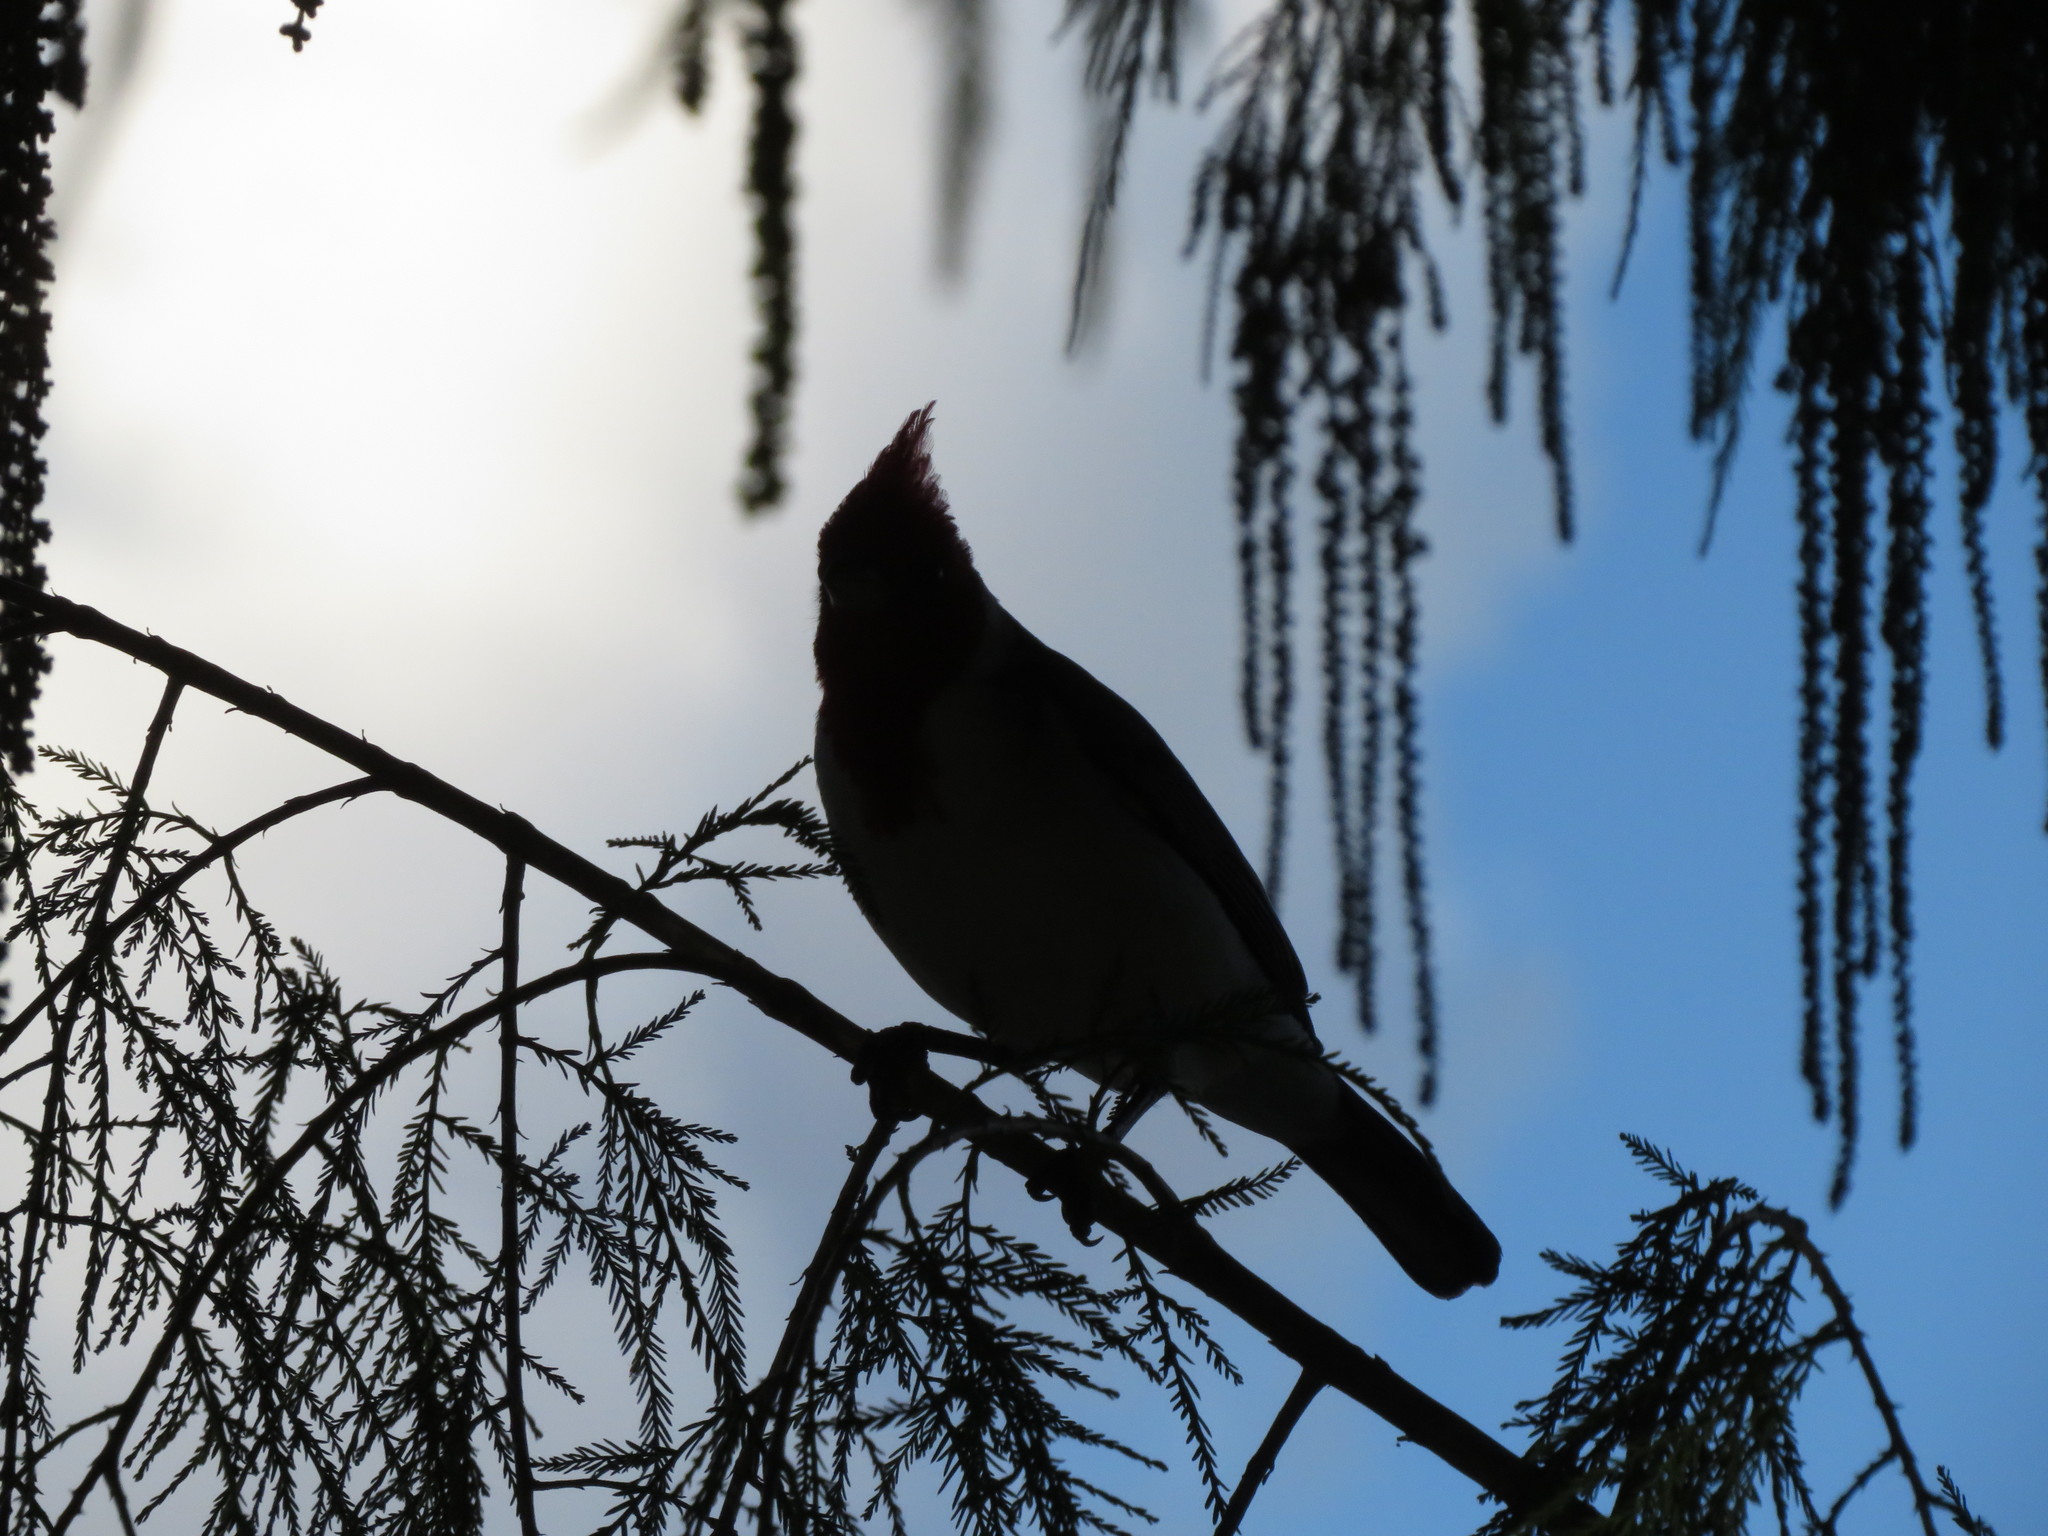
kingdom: Animalia
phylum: Chordata
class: Aves
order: Passeriformes
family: Thraupidae
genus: Paroaria
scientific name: Paroaria coronata
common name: Red-crested cardinal
